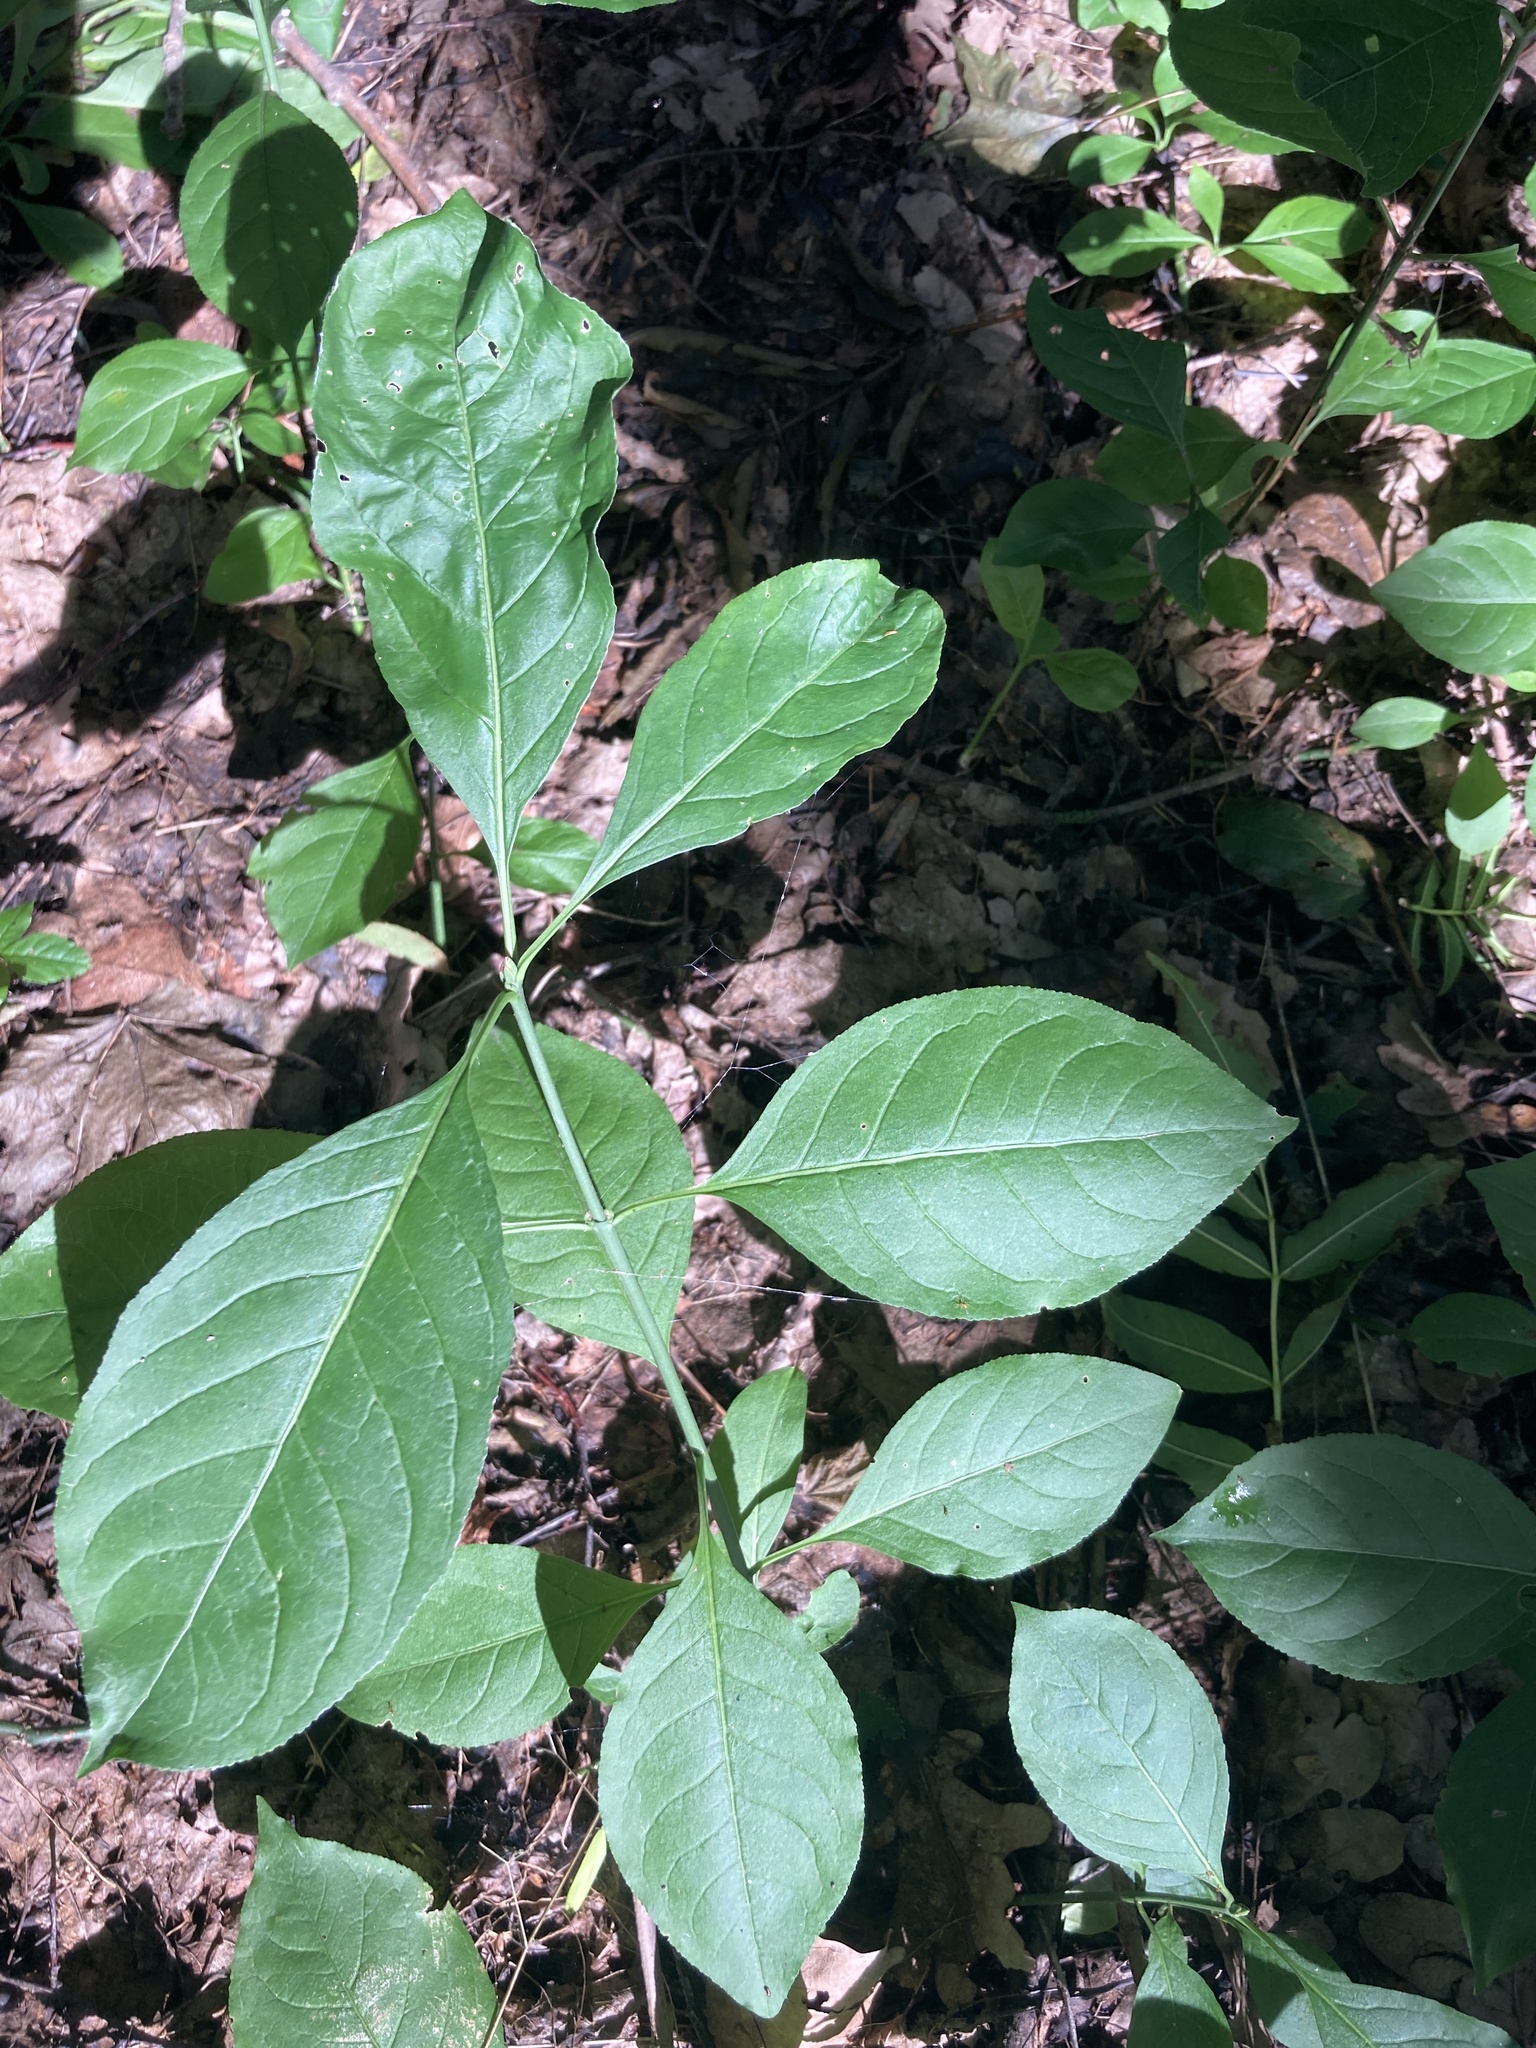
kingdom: Plantae
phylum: Tracheophyta
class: Magnoliopsida
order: Celastrales
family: Celastraceae
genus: Euonymus
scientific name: Euonymus europaeus
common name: Spindle
